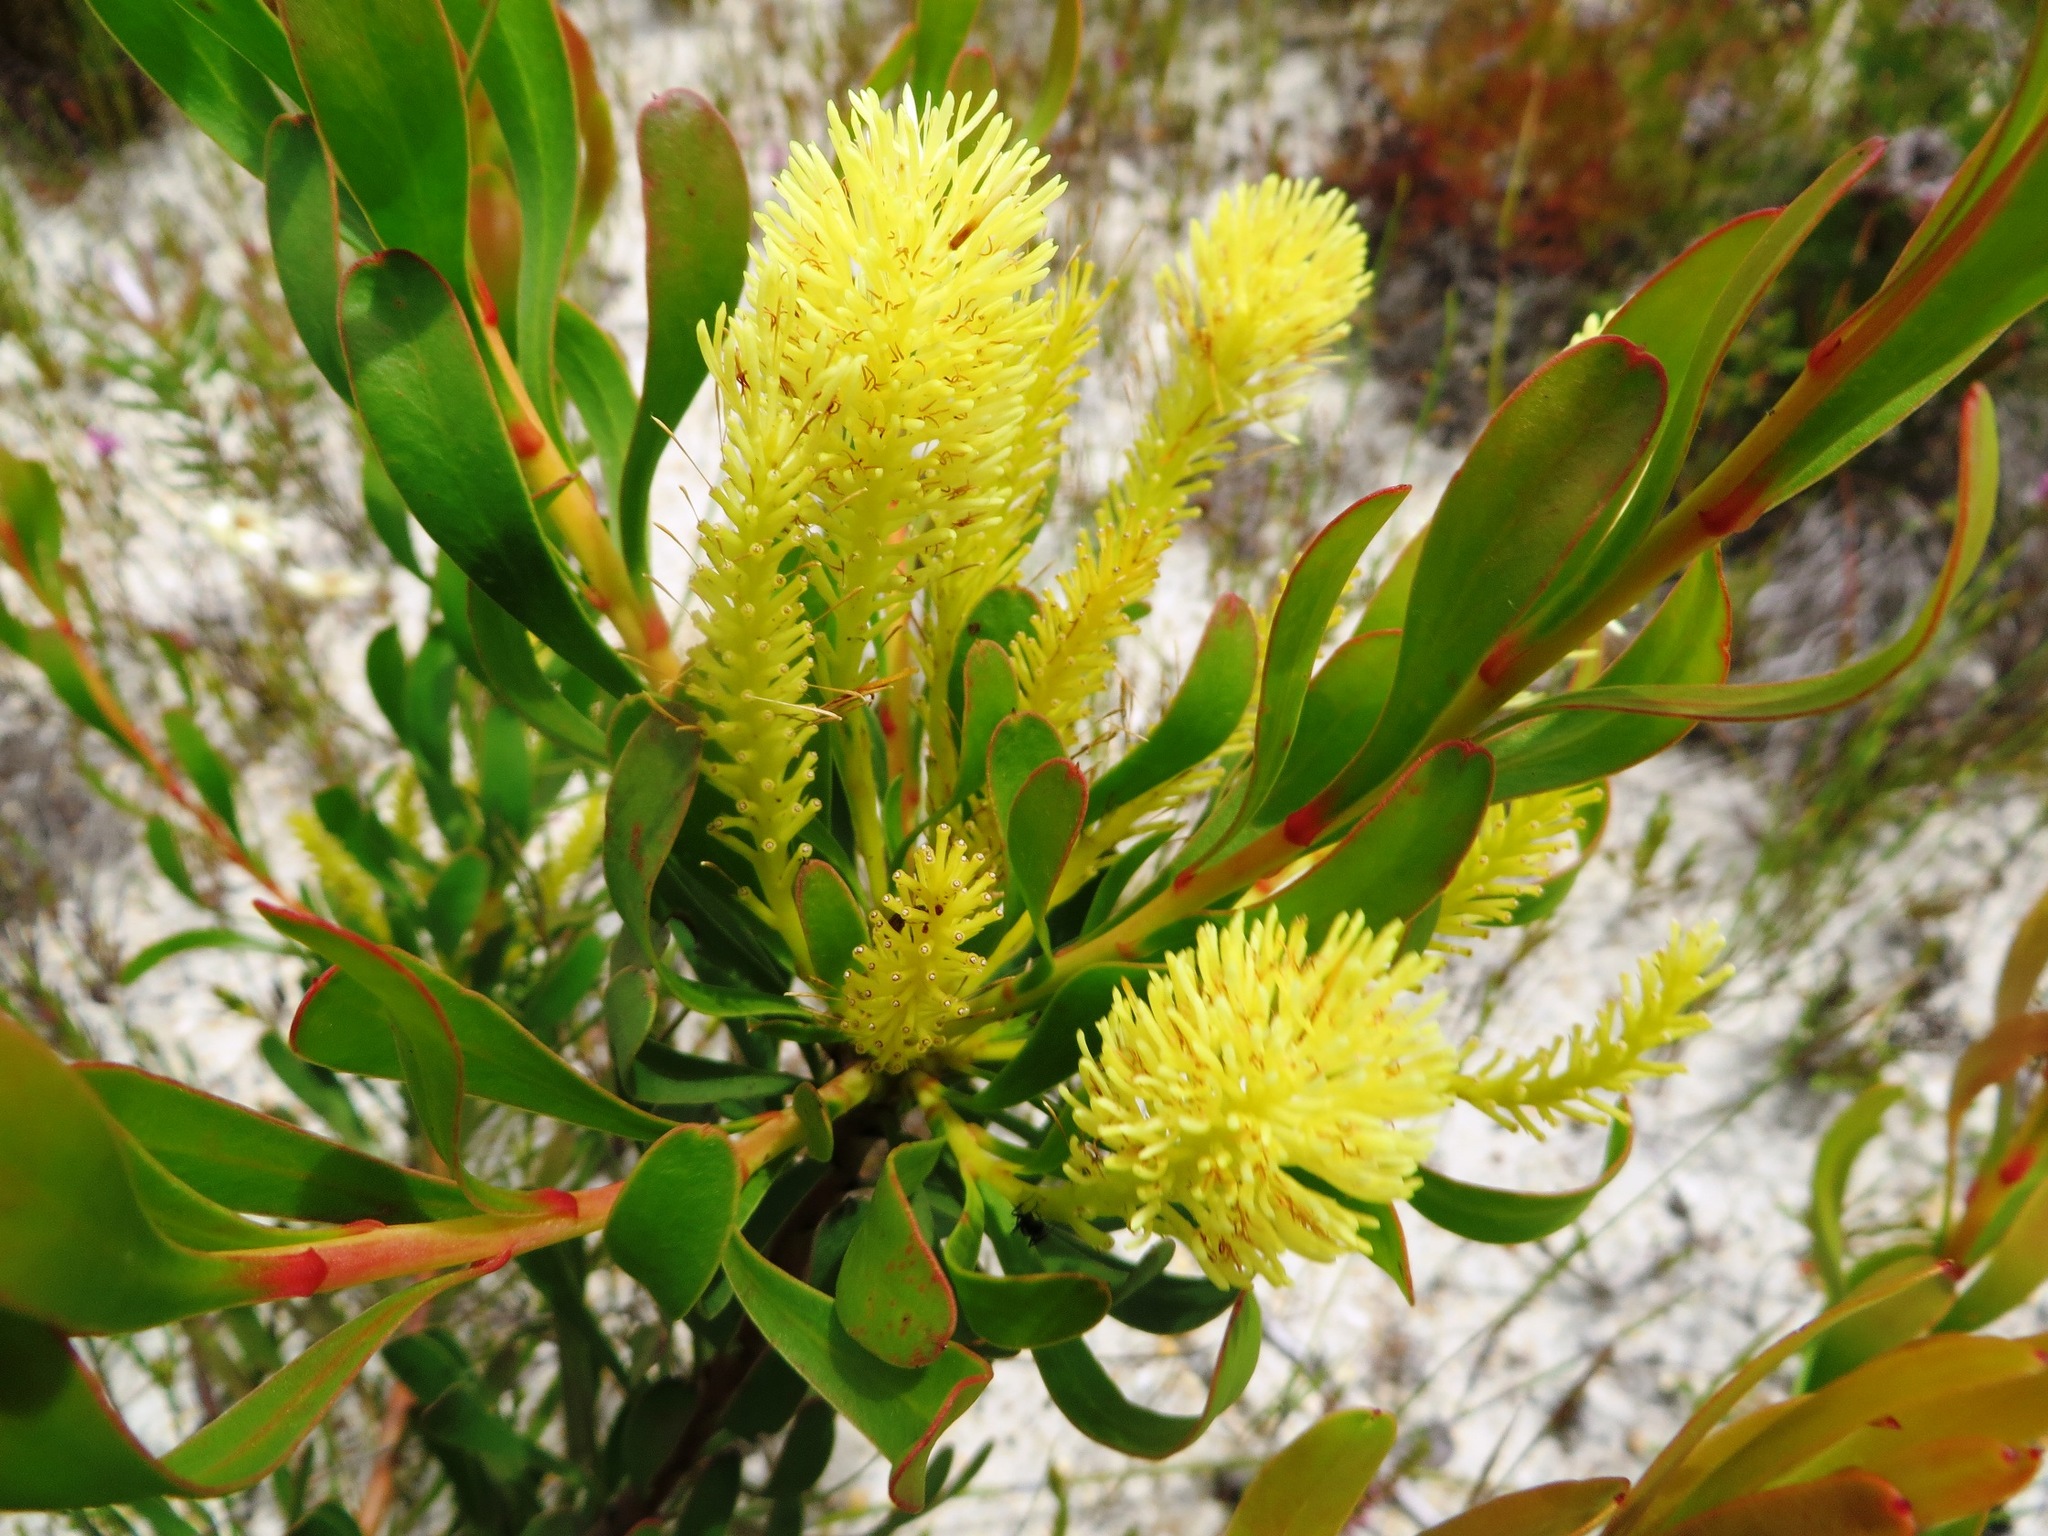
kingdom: Plantae
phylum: Tracheophyta
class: Magnoliopsida
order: Proteales
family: Proteaceae
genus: Aulax
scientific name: Aulax umbellata
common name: Broad-leaf featherbush
